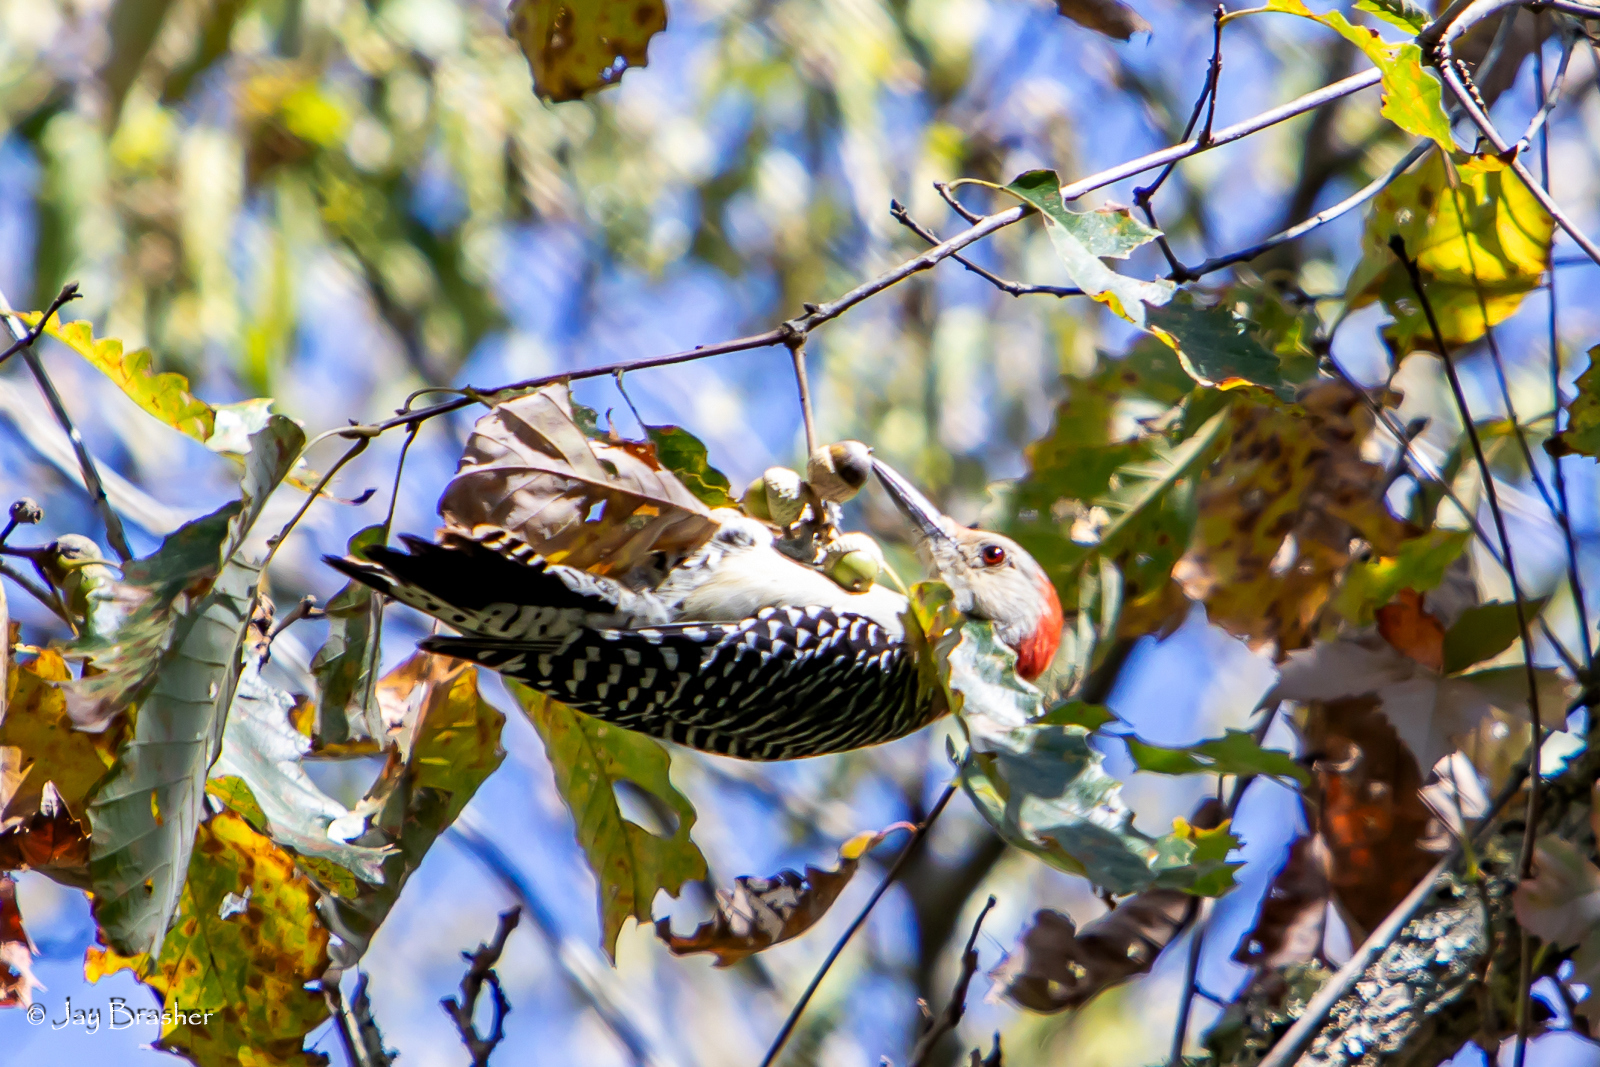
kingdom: Animalia
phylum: Chordata
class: Aves
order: Piciformes
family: Picidae
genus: Melanerpes
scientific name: Melanerpes carolinus
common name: Red-bellied woodpecker
